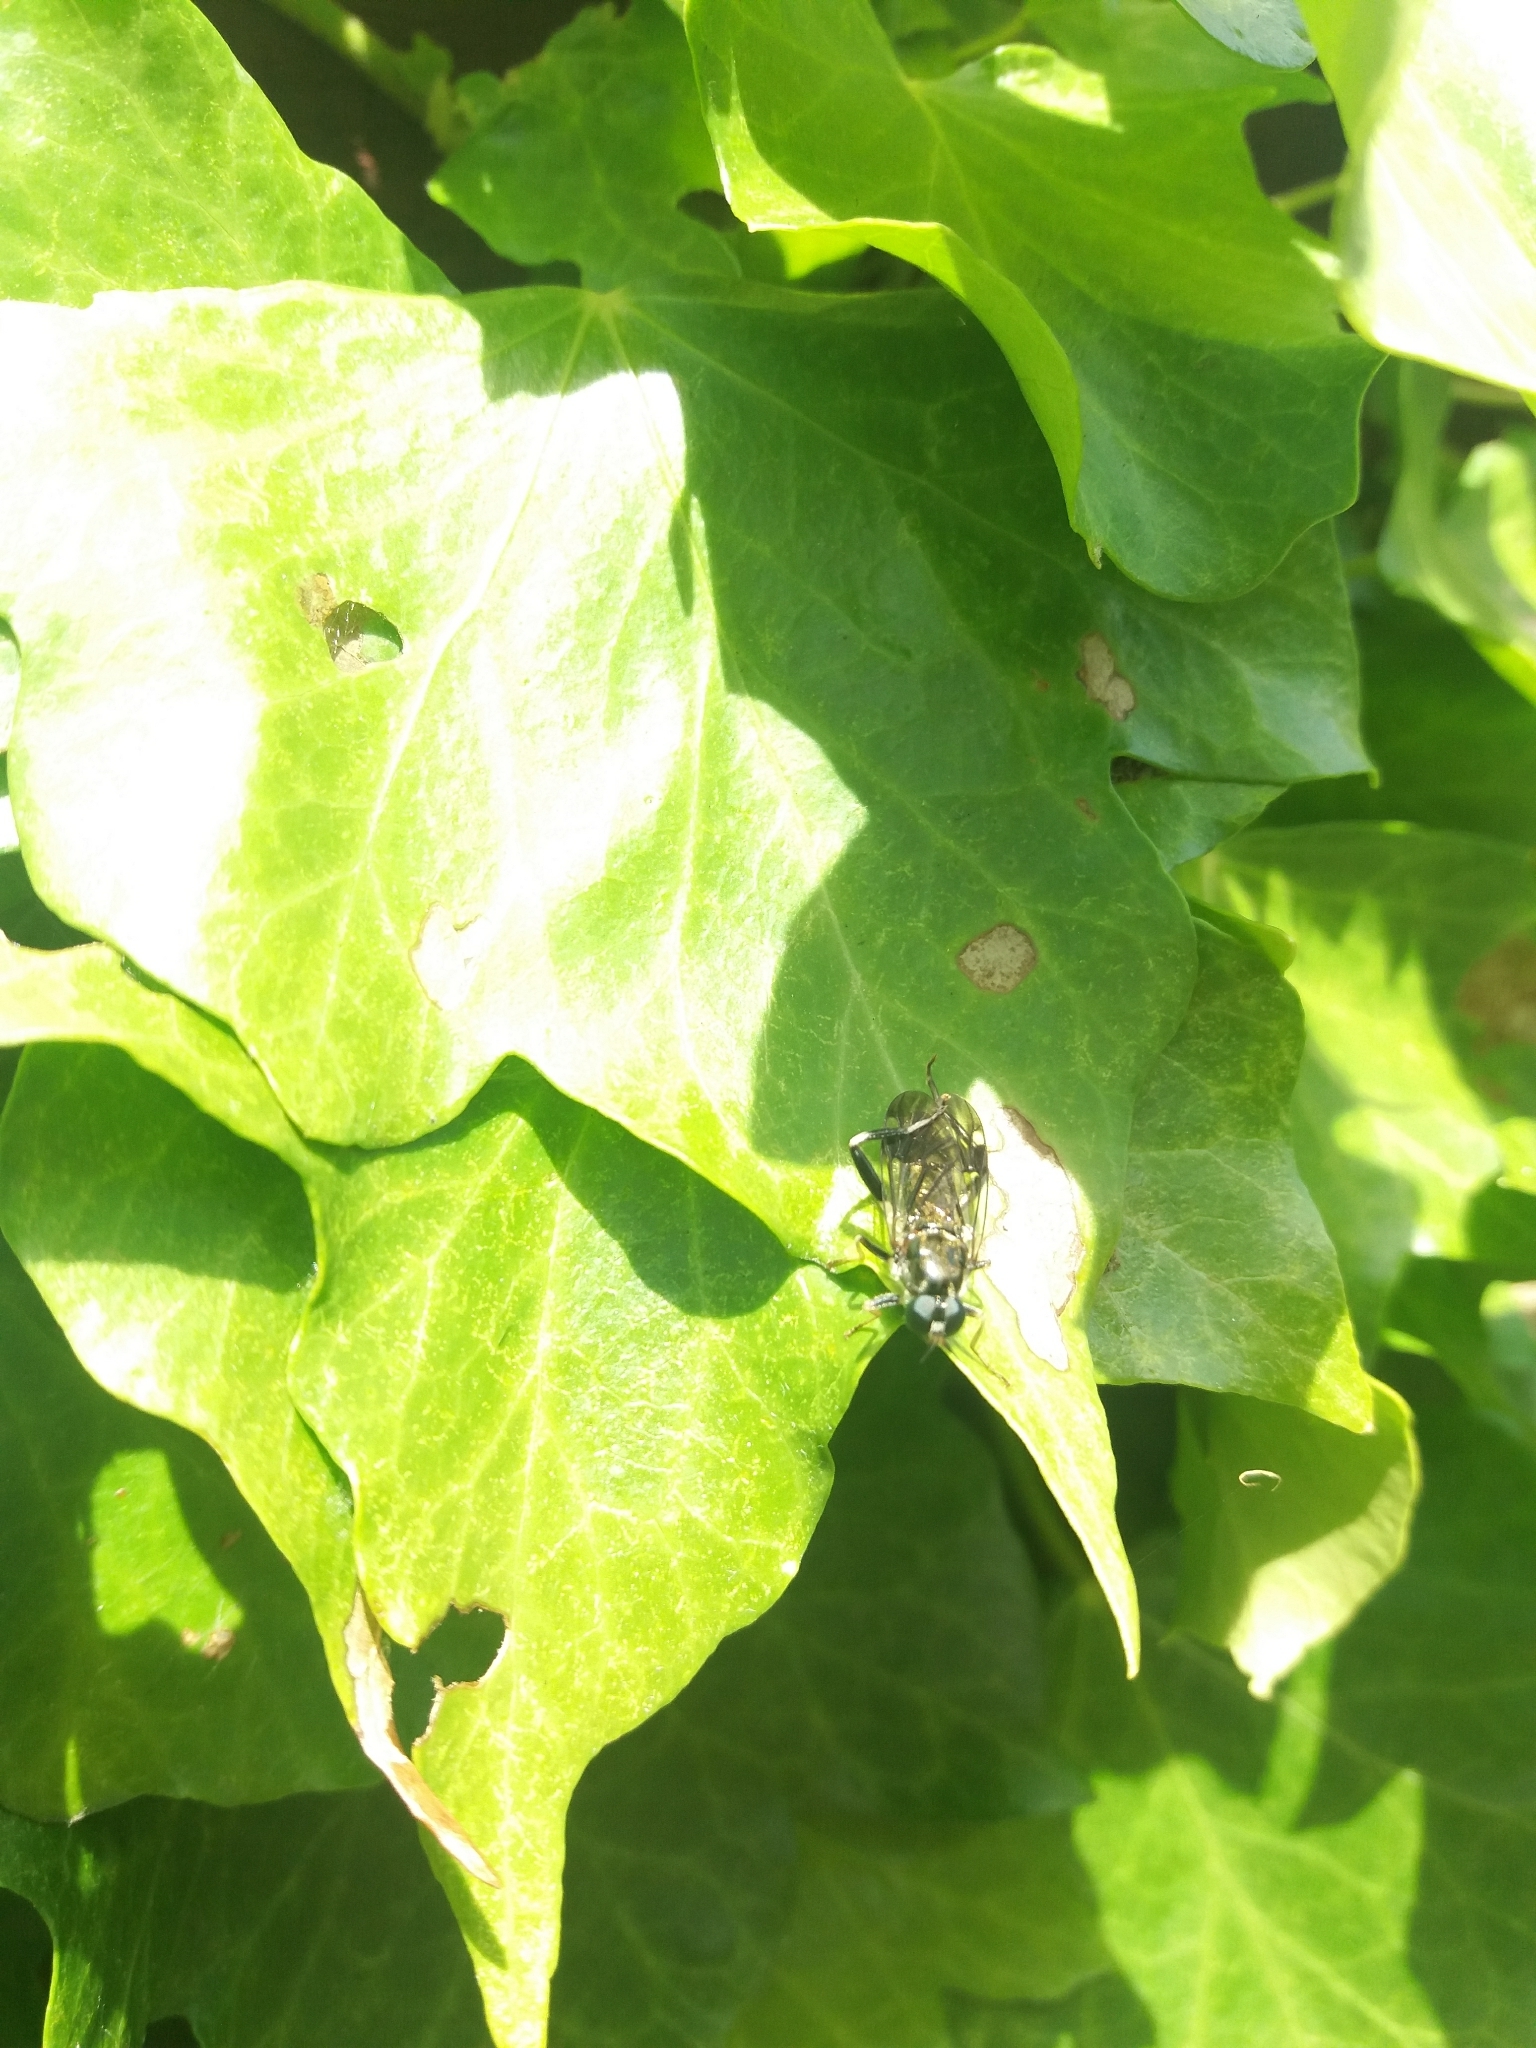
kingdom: Animalia
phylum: Arthropoda
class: Insecta
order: Diptera
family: Stratiomyidae
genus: Exaireta
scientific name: Exaireta spinigera
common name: Blue soldier fly
